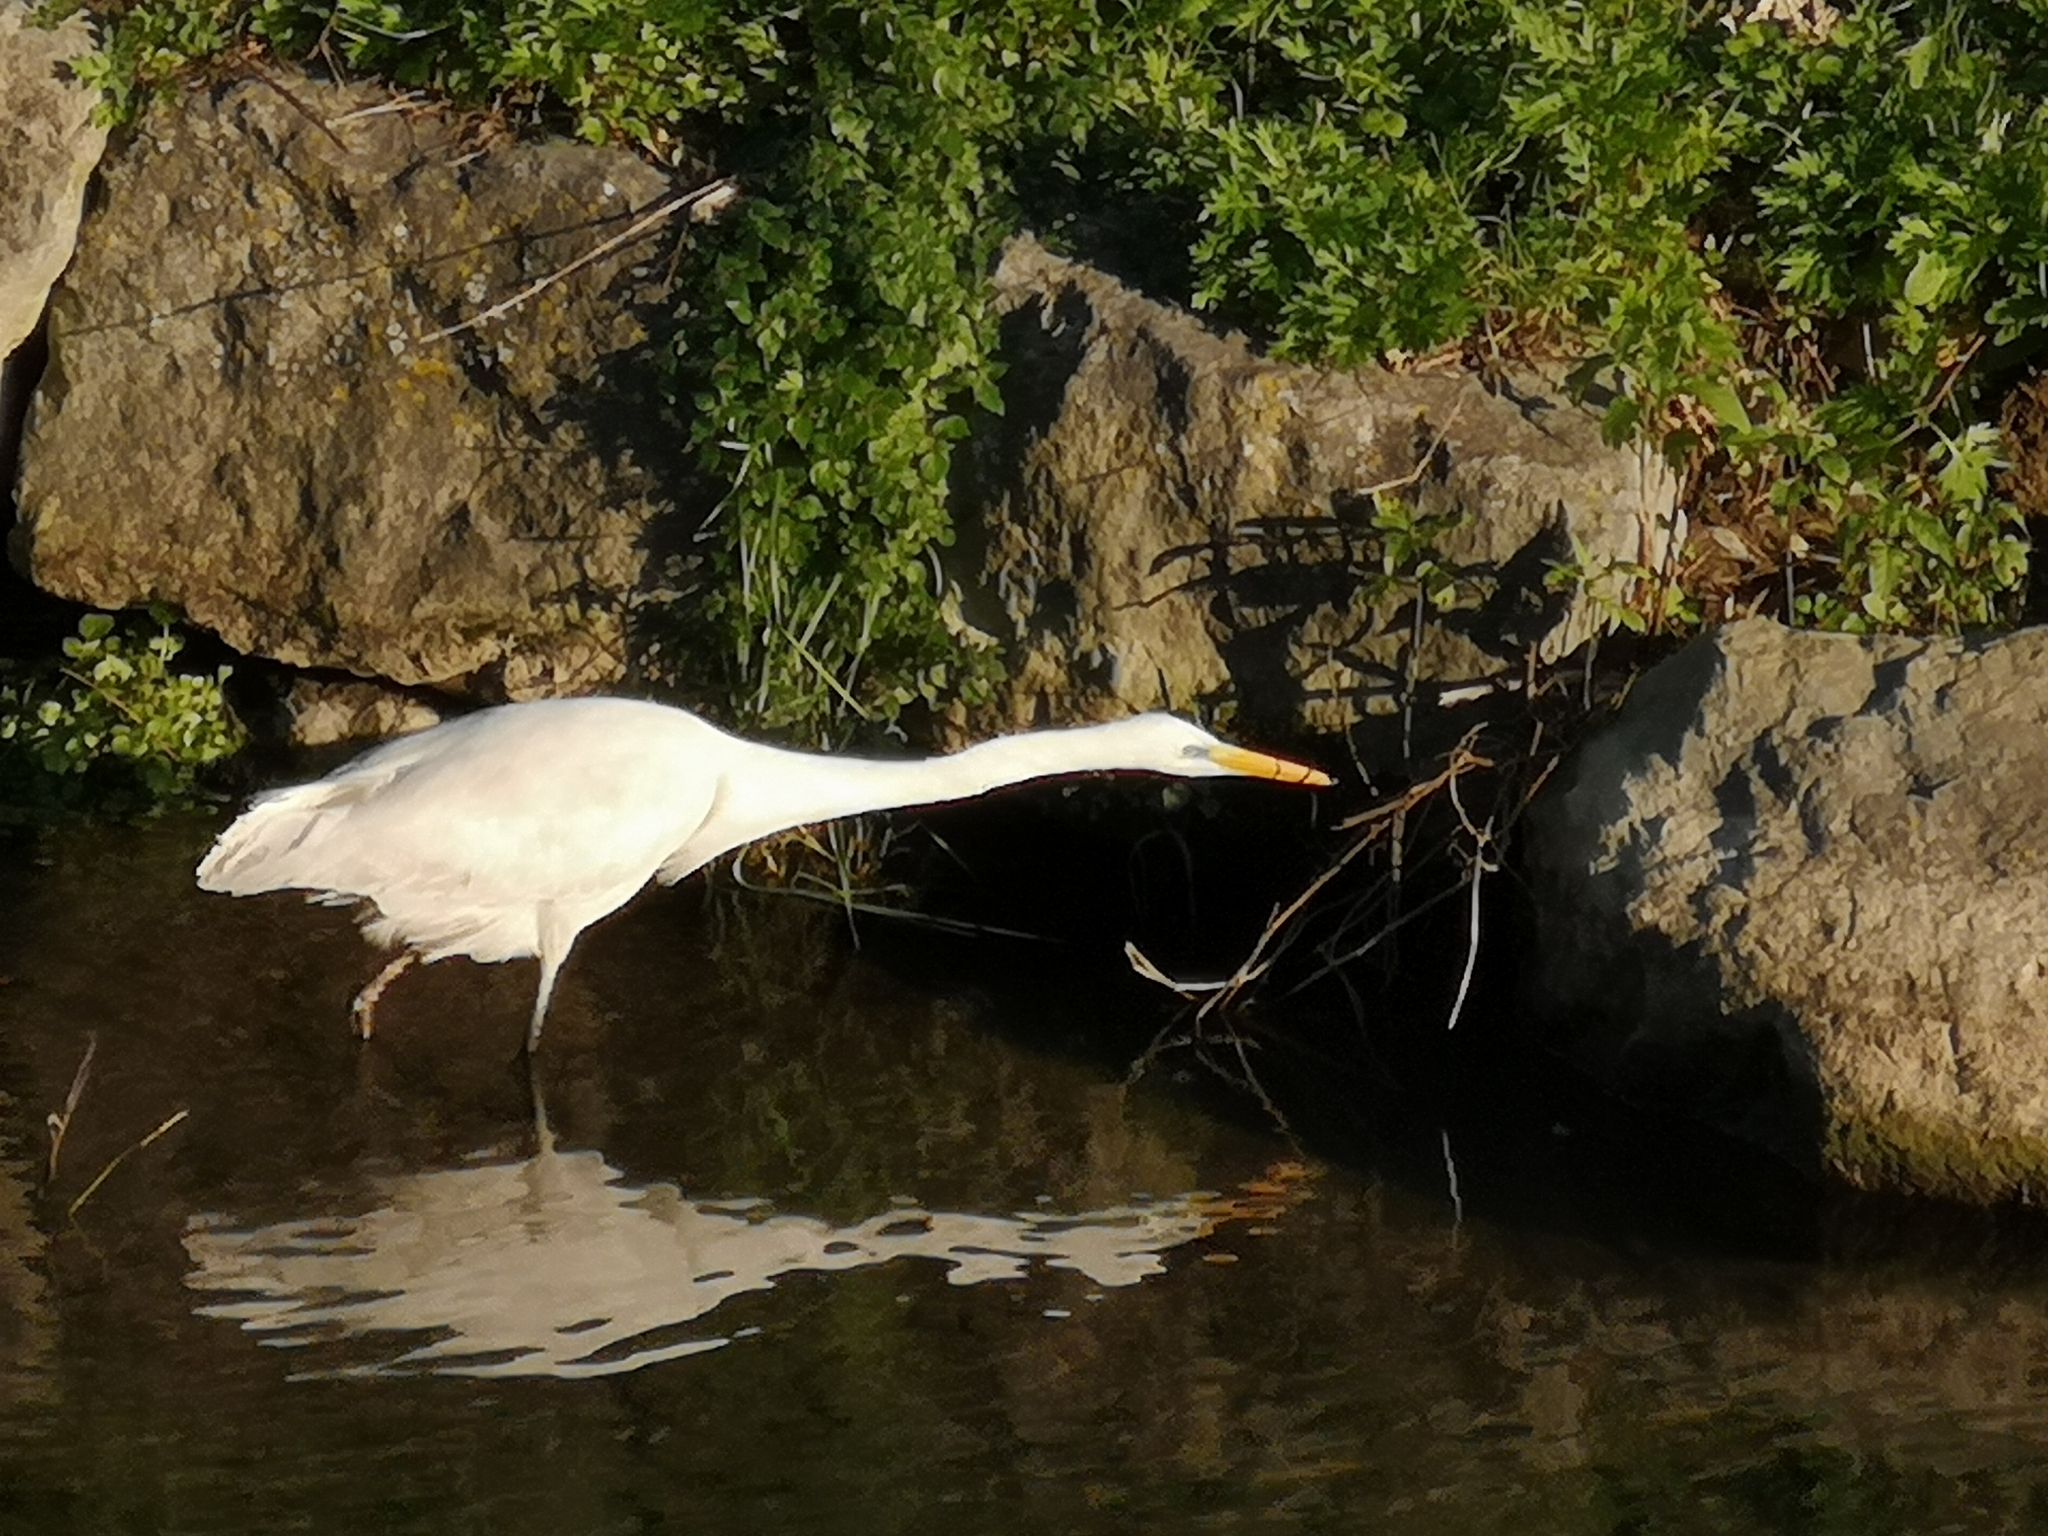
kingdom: Animalia
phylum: Chordata
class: Aves
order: Pelecaniformes
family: Ardeidae
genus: Ardea
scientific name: Ardea alba
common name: Great egret
